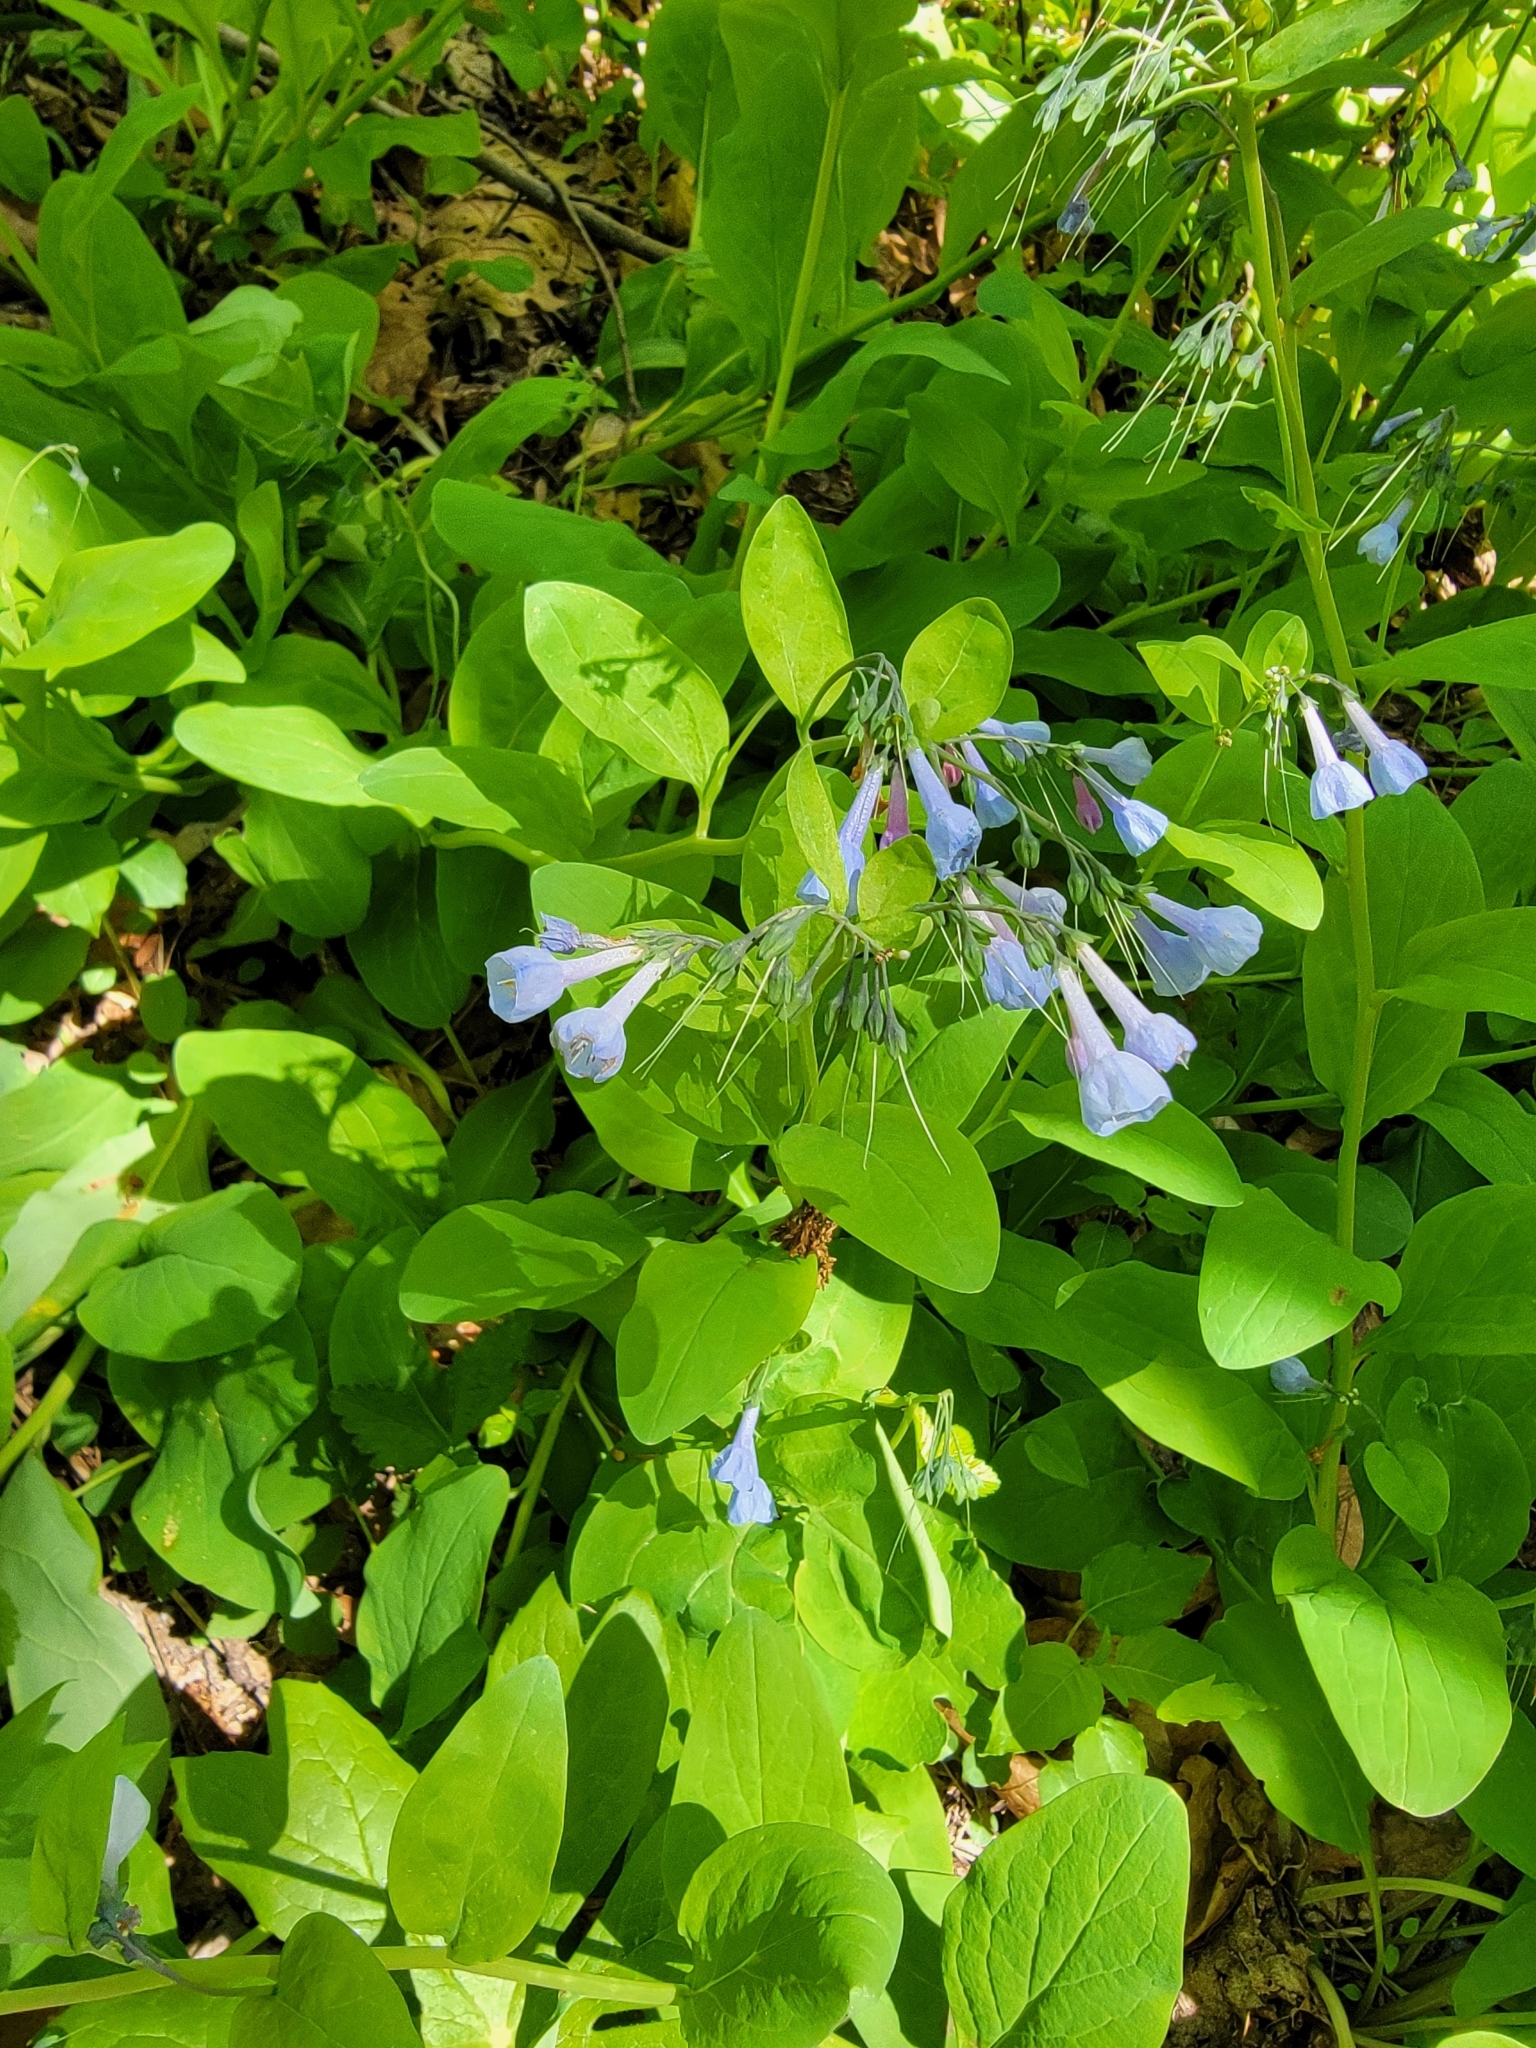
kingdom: Plantae
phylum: Tracheophyta
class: Magnoliopsida
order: Boraginales
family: Boraginaceae
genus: Mertensia
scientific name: Mertensia virginica
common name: Virginia bluebells
